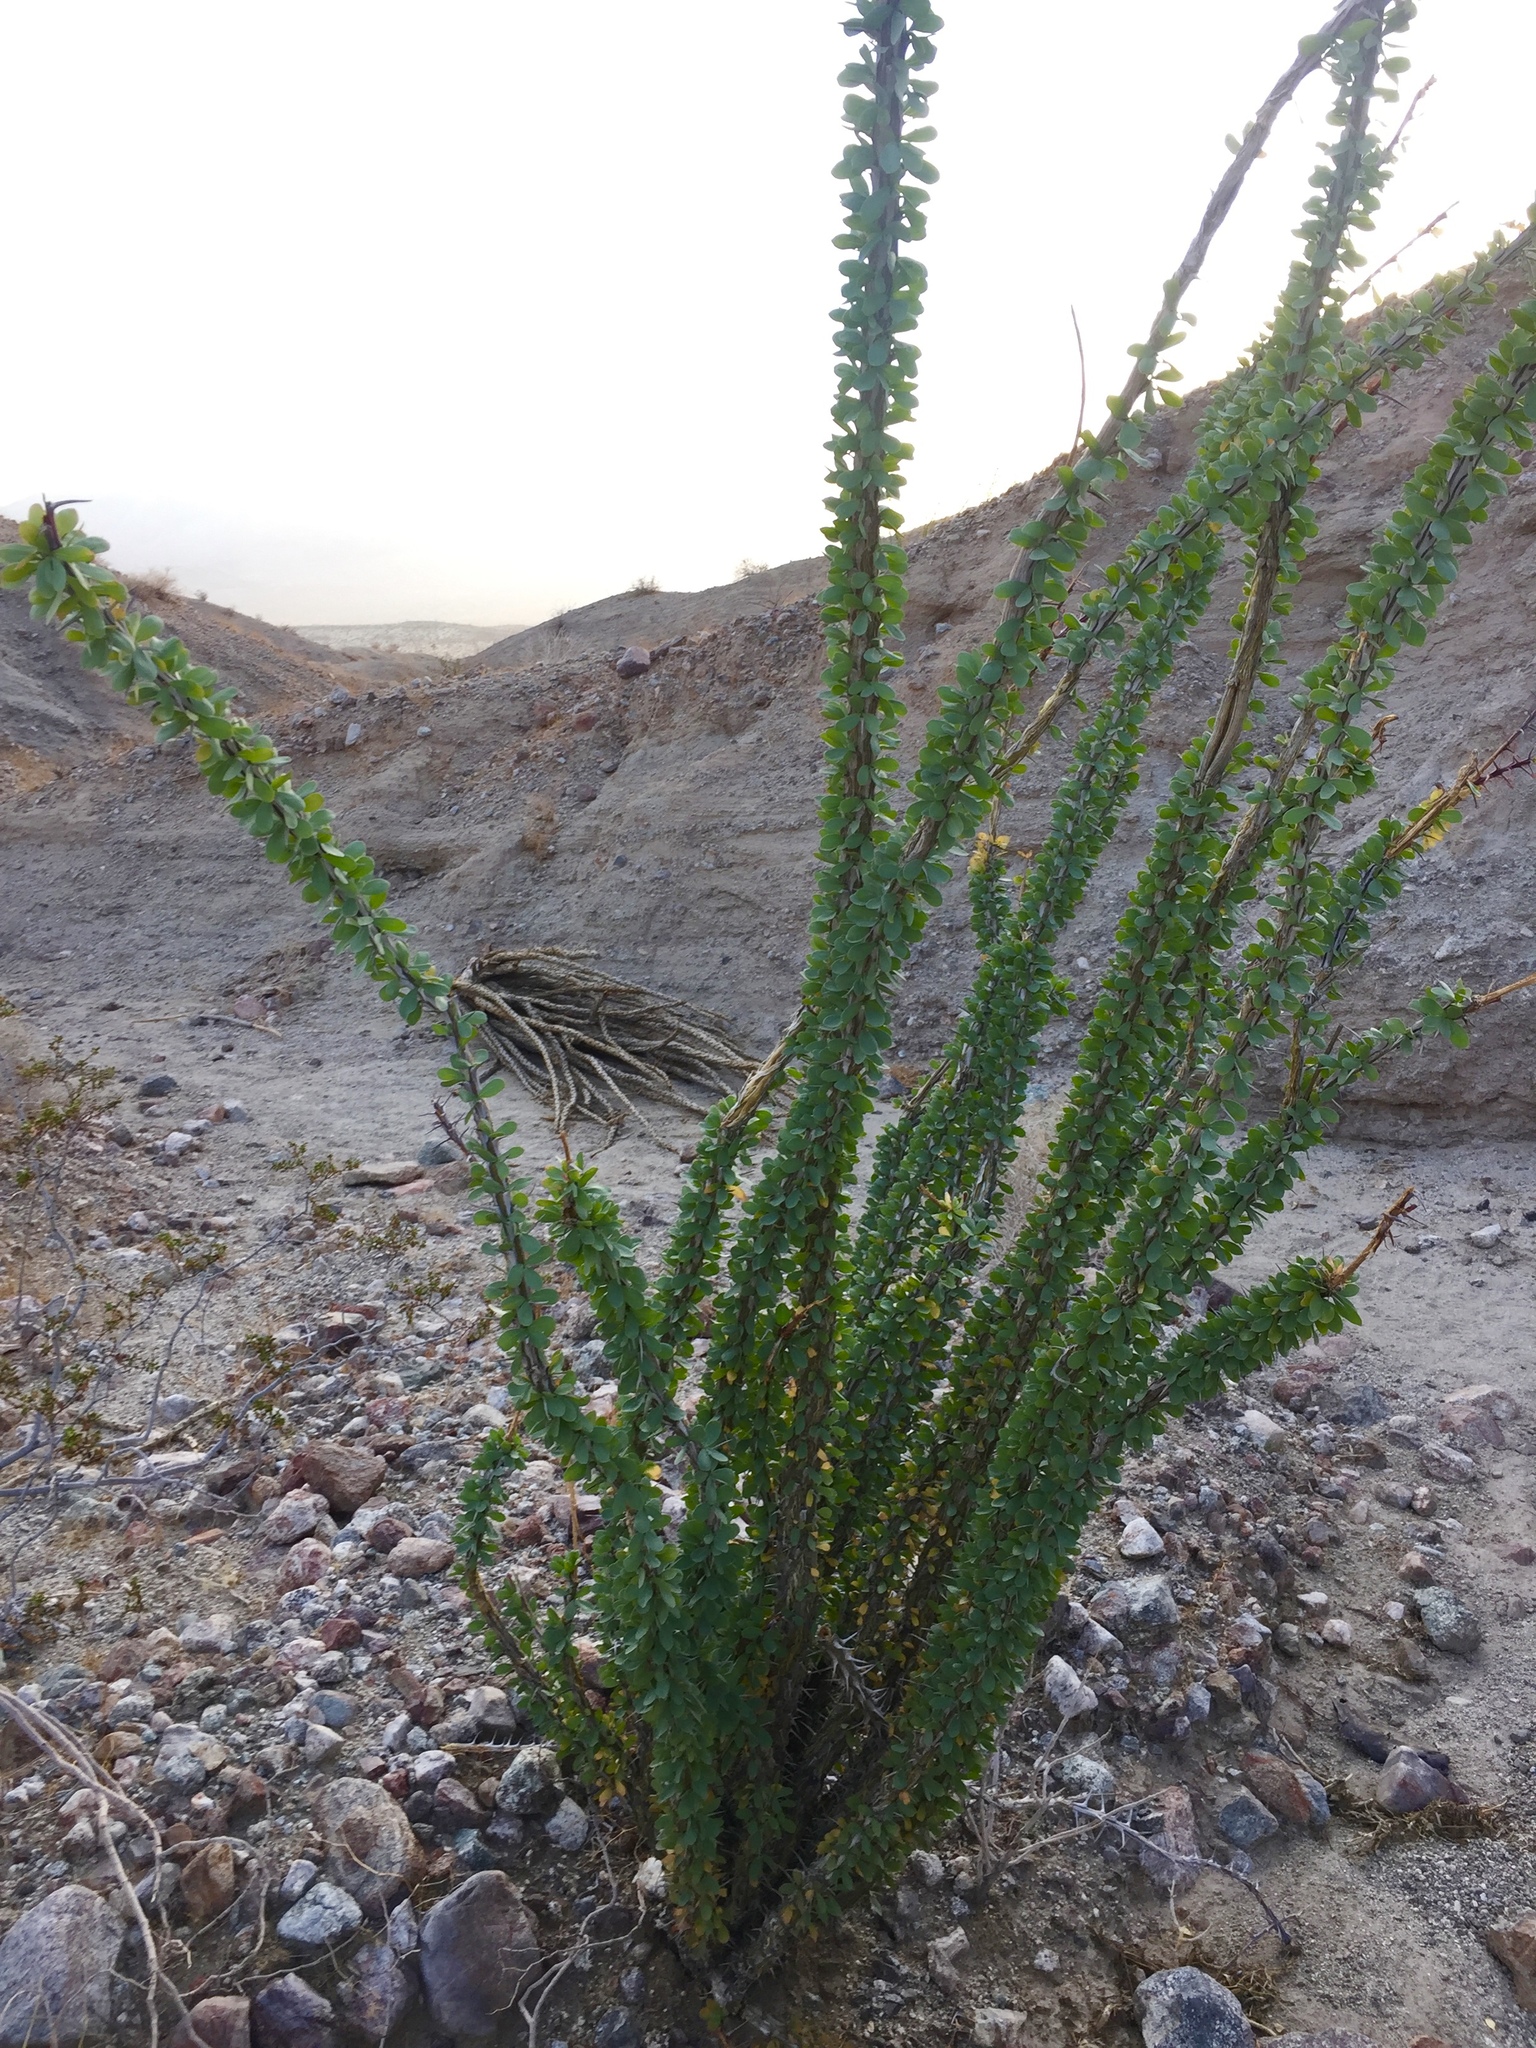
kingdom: Plantae
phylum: Tracheophyta
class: Magnoliopsida
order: Ericales
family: Fouquieriaceae
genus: Fouquieria
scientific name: Fouquieria splendens
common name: Vine-cactus
